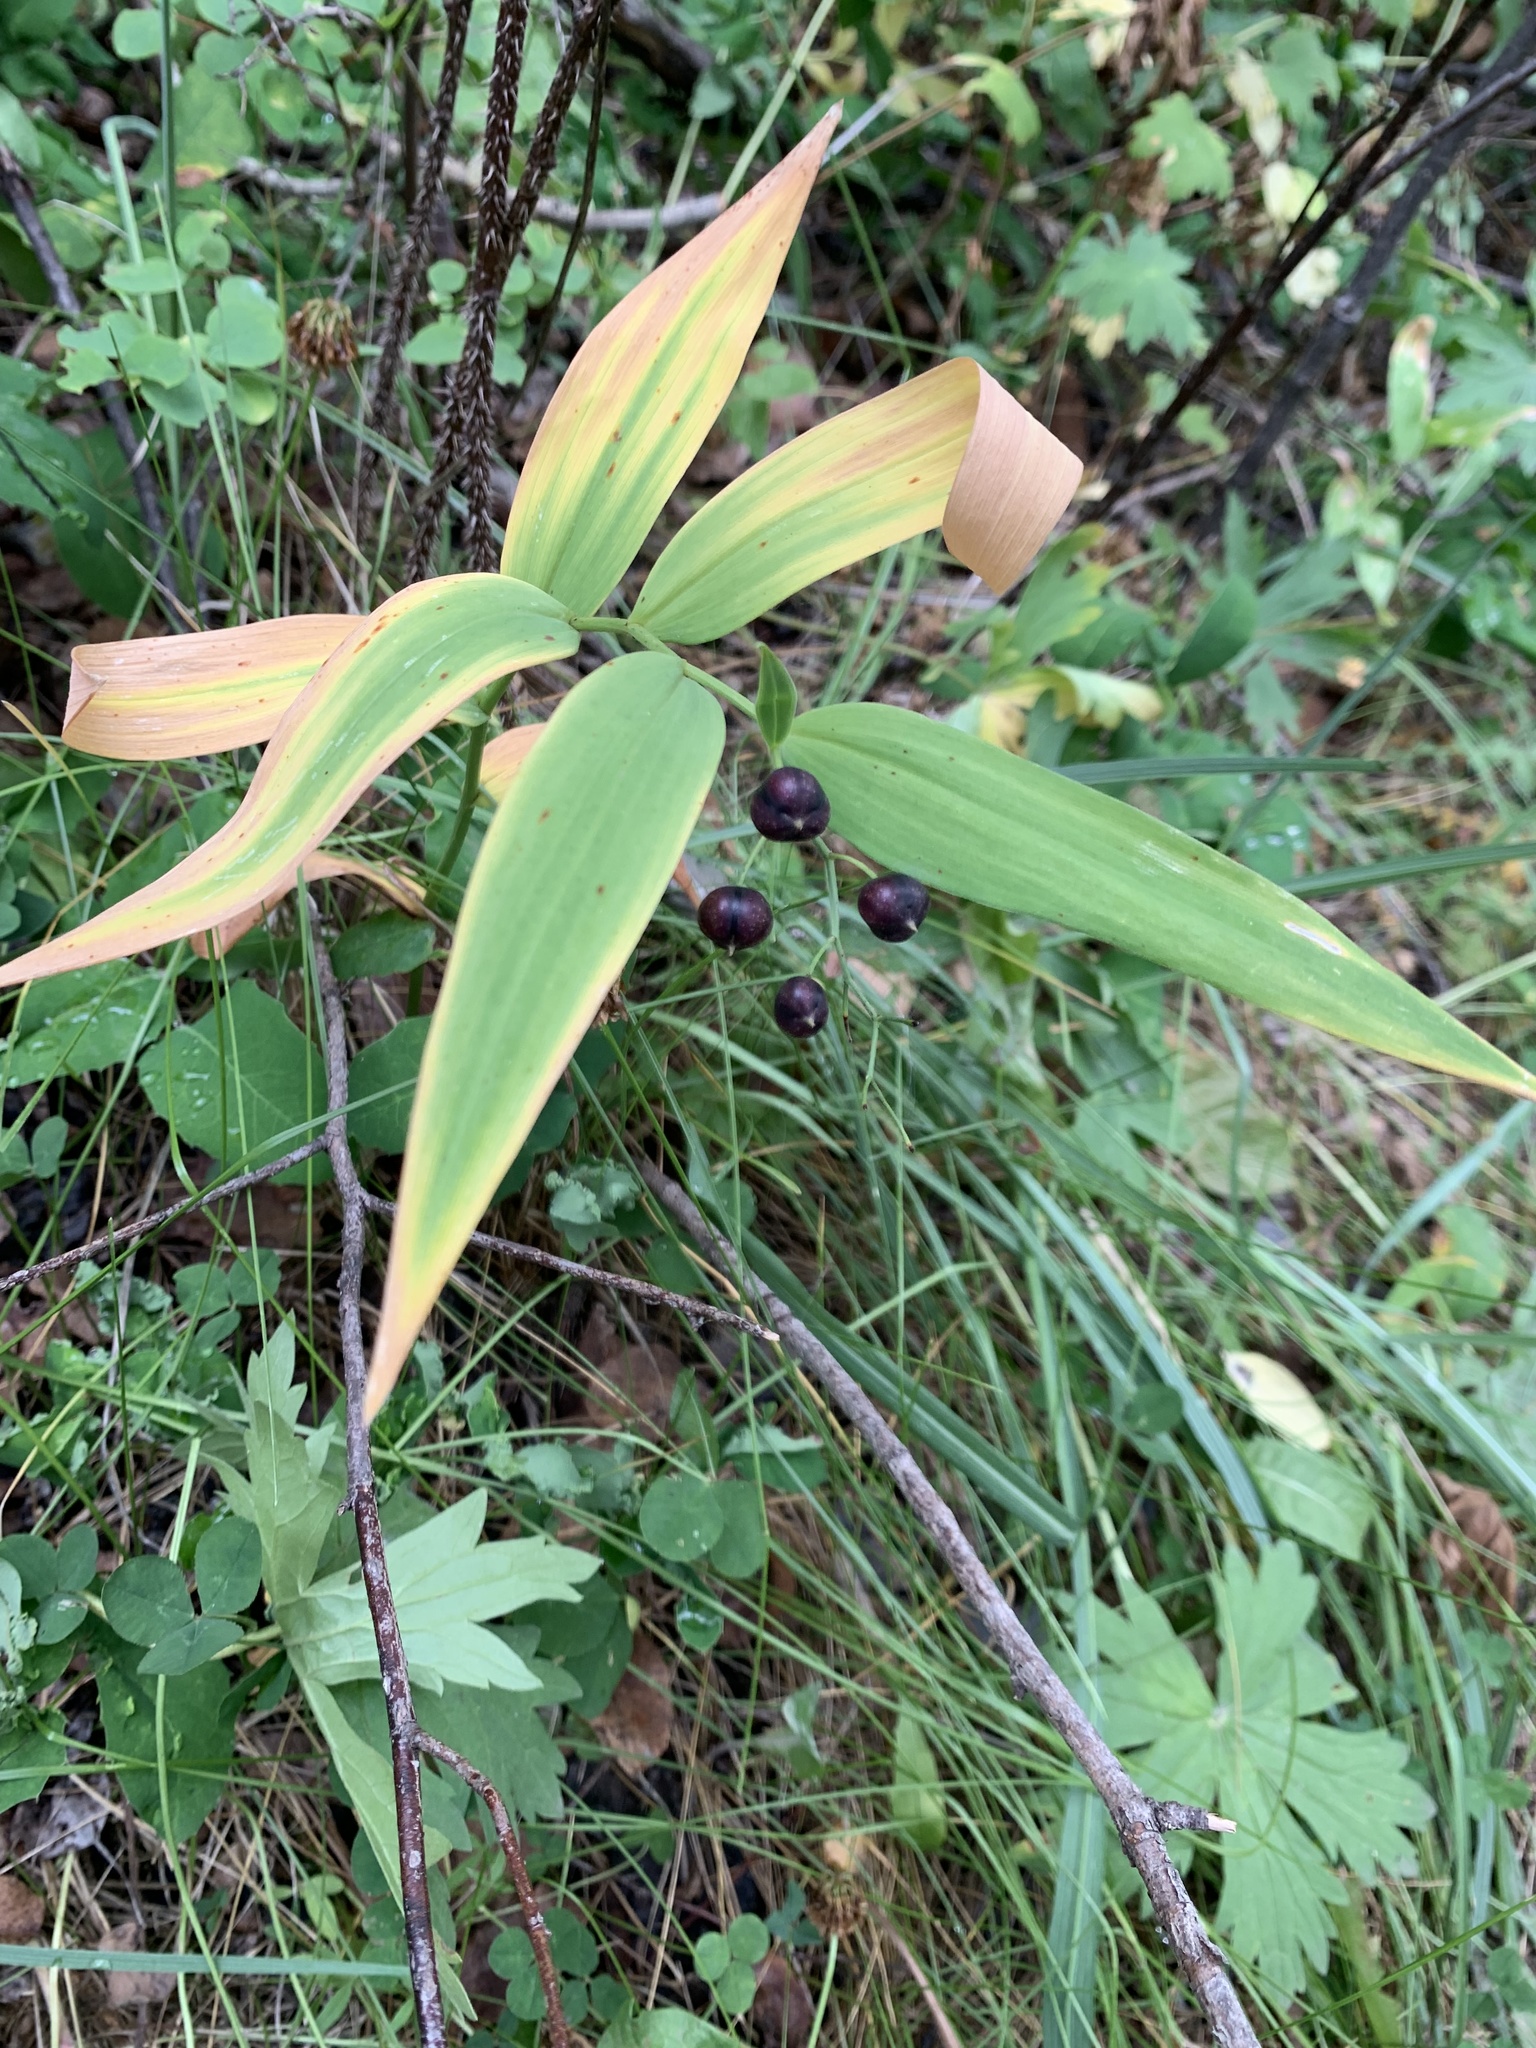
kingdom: Plantae
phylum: Tracheophyta
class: Liliopsida
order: Asparagales
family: Asparagaceae
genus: Maianthemum
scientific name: Maianthemum stellatum
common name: Little false solomon's seal
